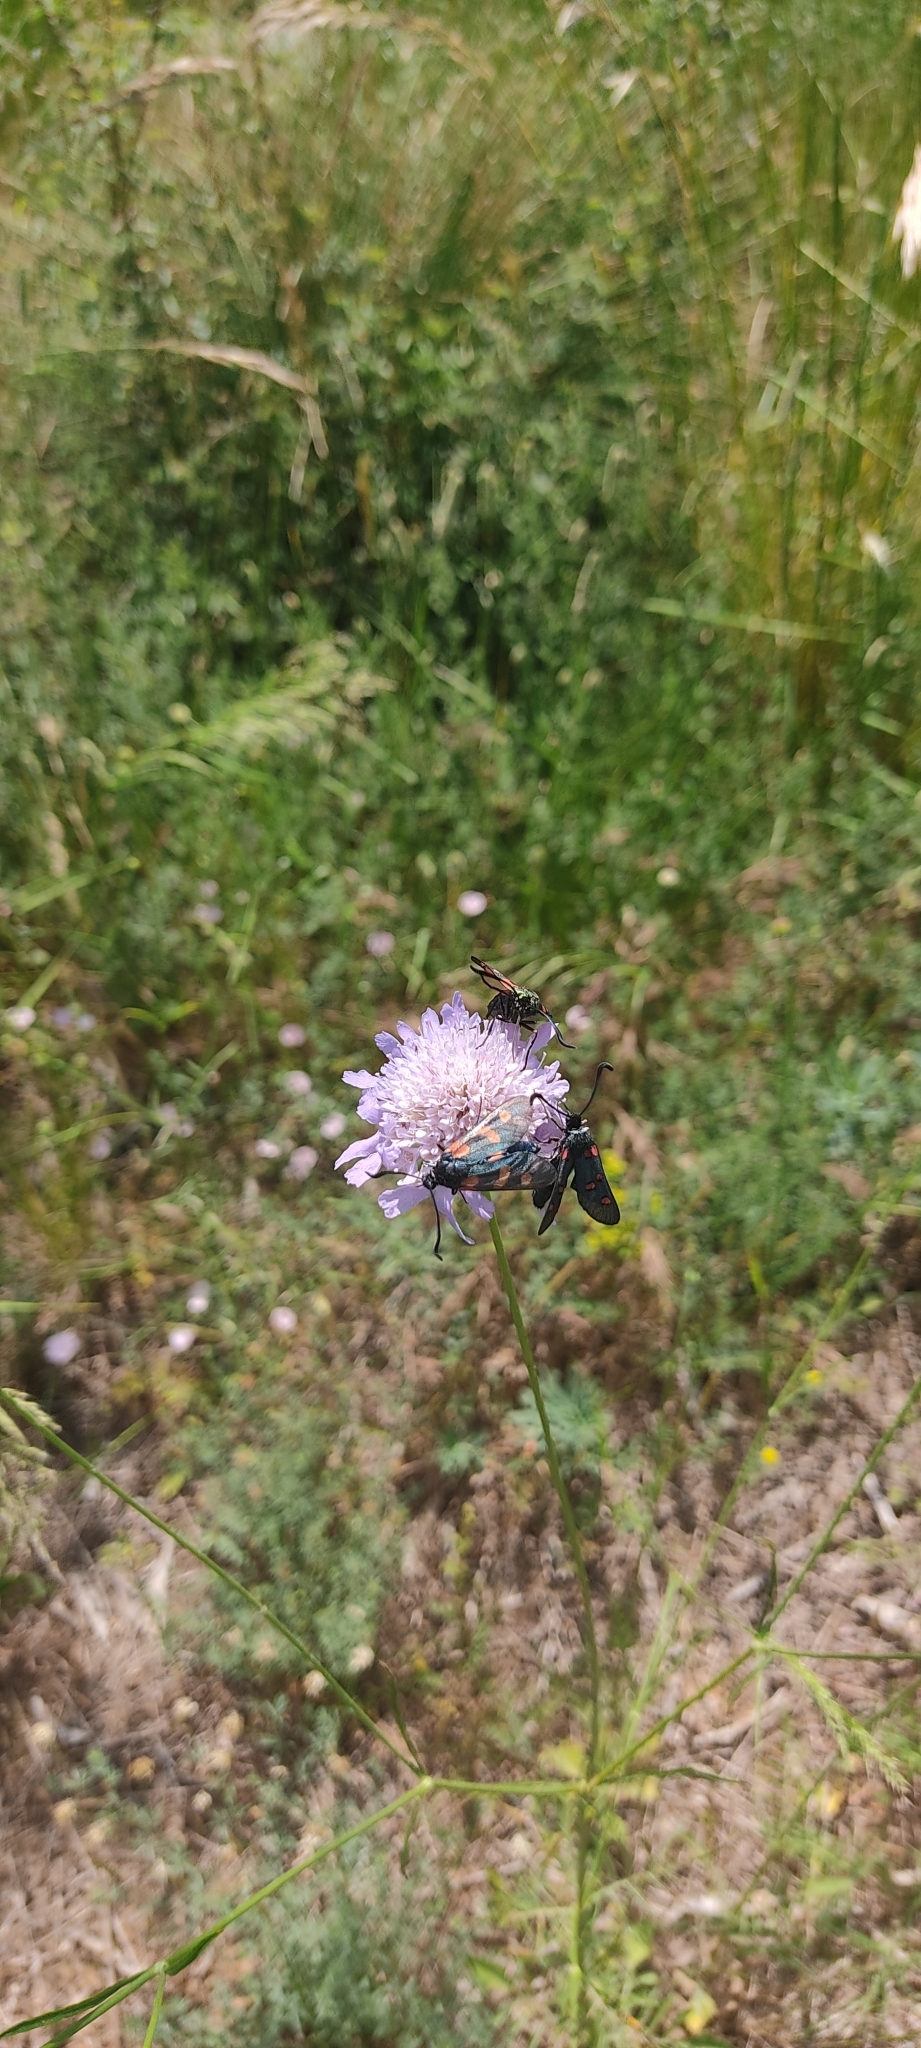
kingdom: Animalia
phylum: Arthropoda
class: Insecta
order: Lepidoptera
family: Zygaenidae
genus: Zygaena
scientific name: Zygaena filipendulae
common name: Six-spot burnet
